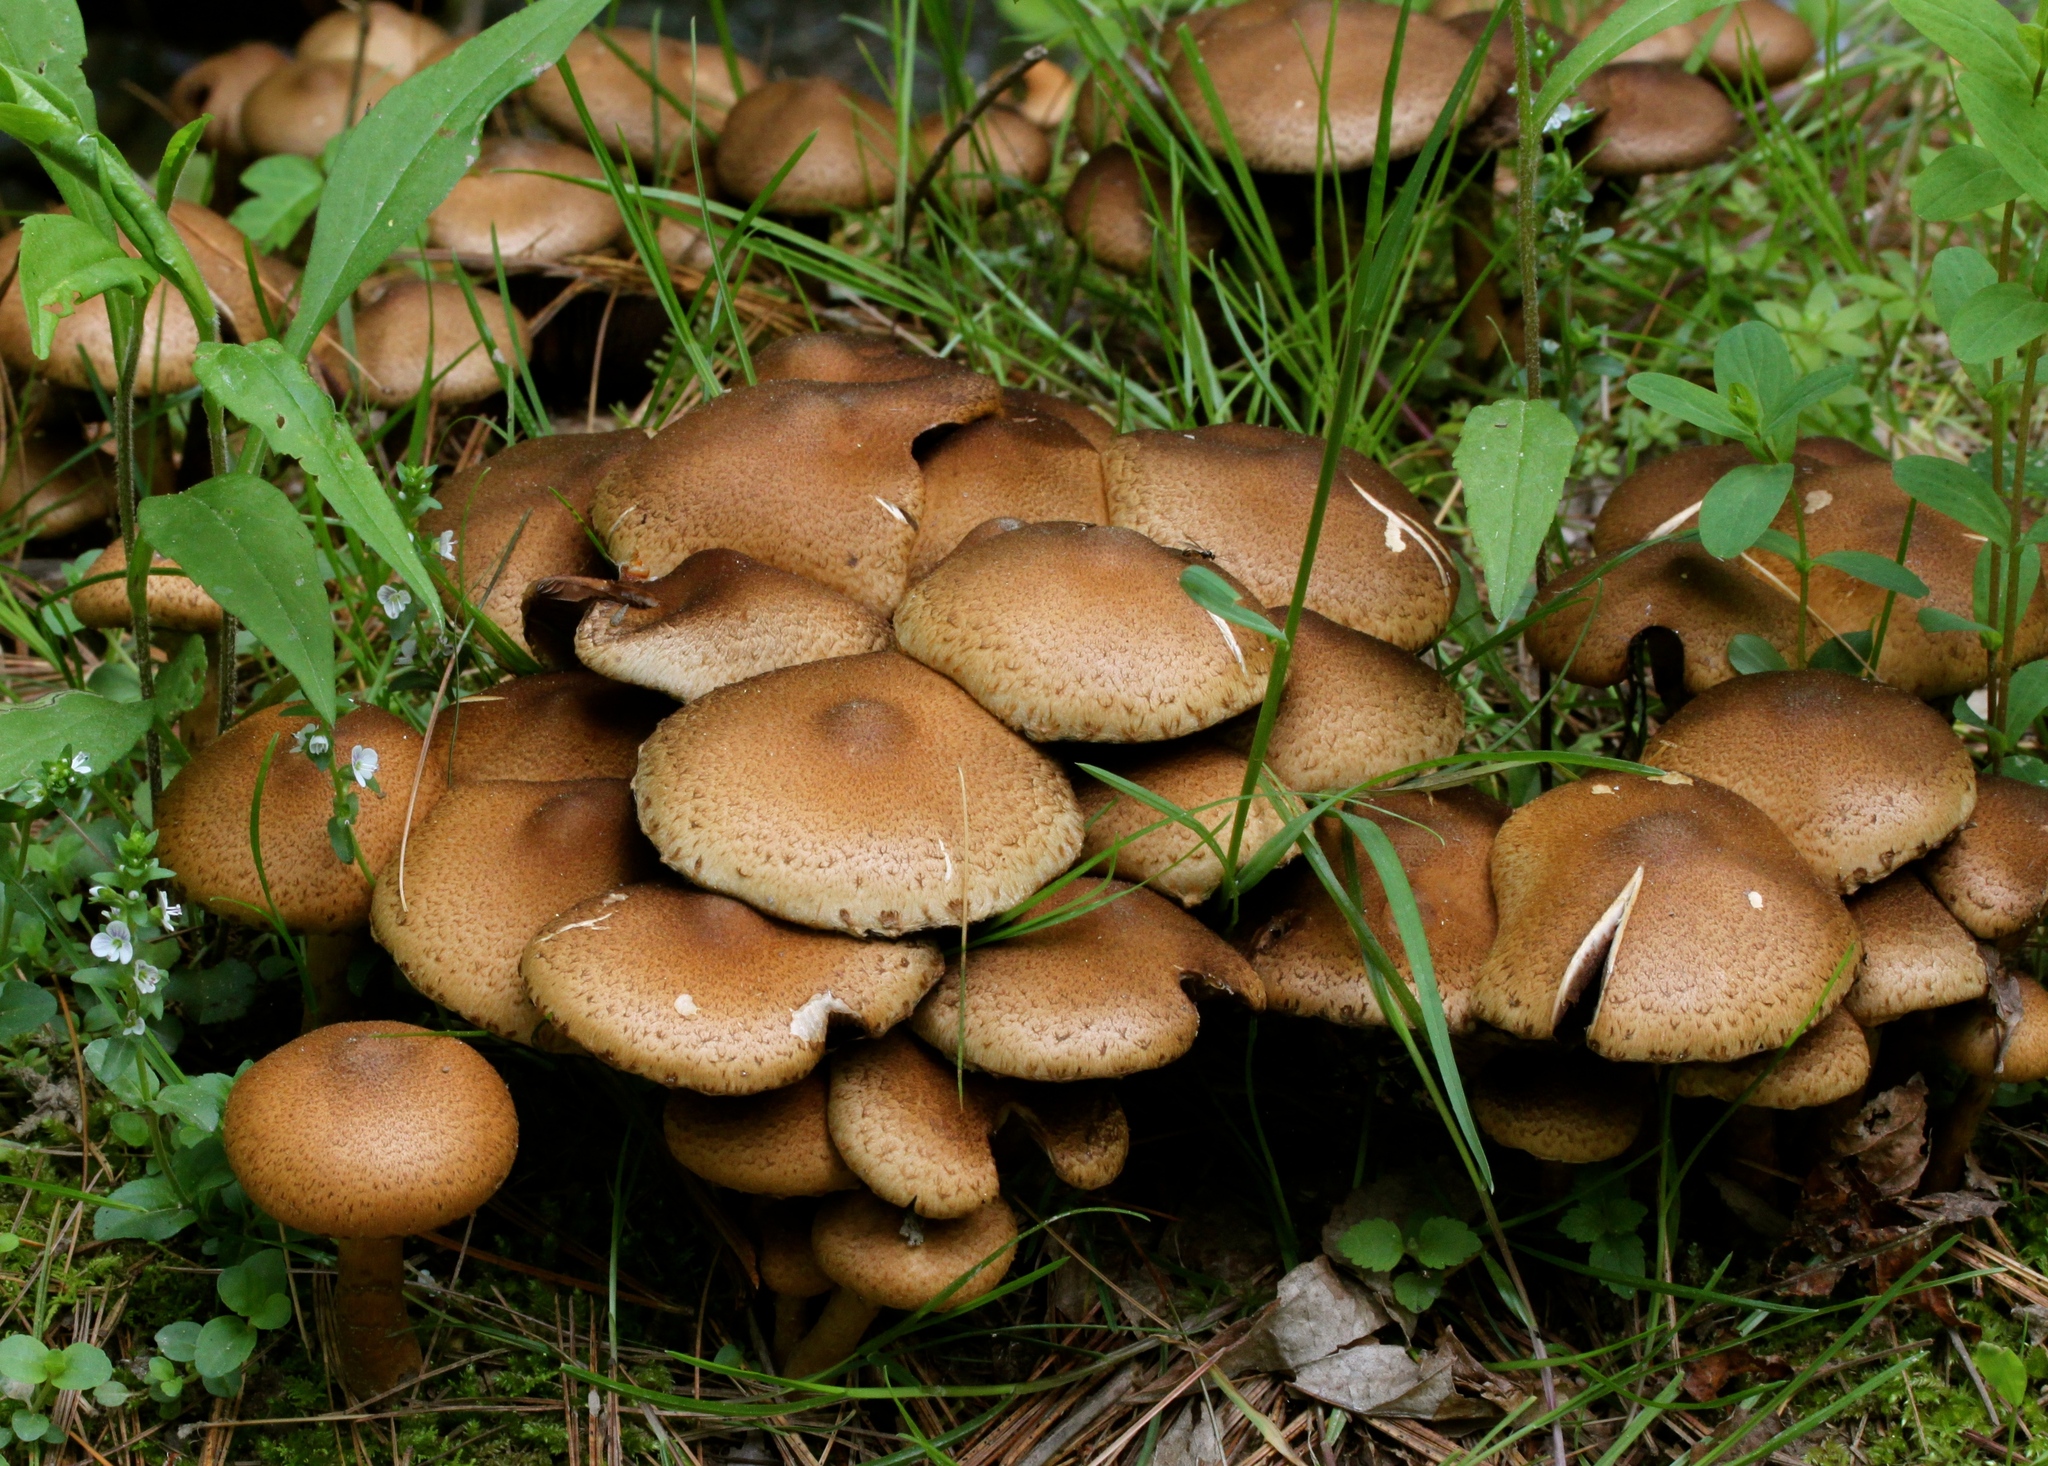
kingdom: Fungi
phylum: Basidiomycota
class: Agaricomycetes
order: Agaricales
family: Psathyrellaceae
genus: Lacrymaria
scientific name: Lacrymaria lacrymabunda
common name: Weeping widow
